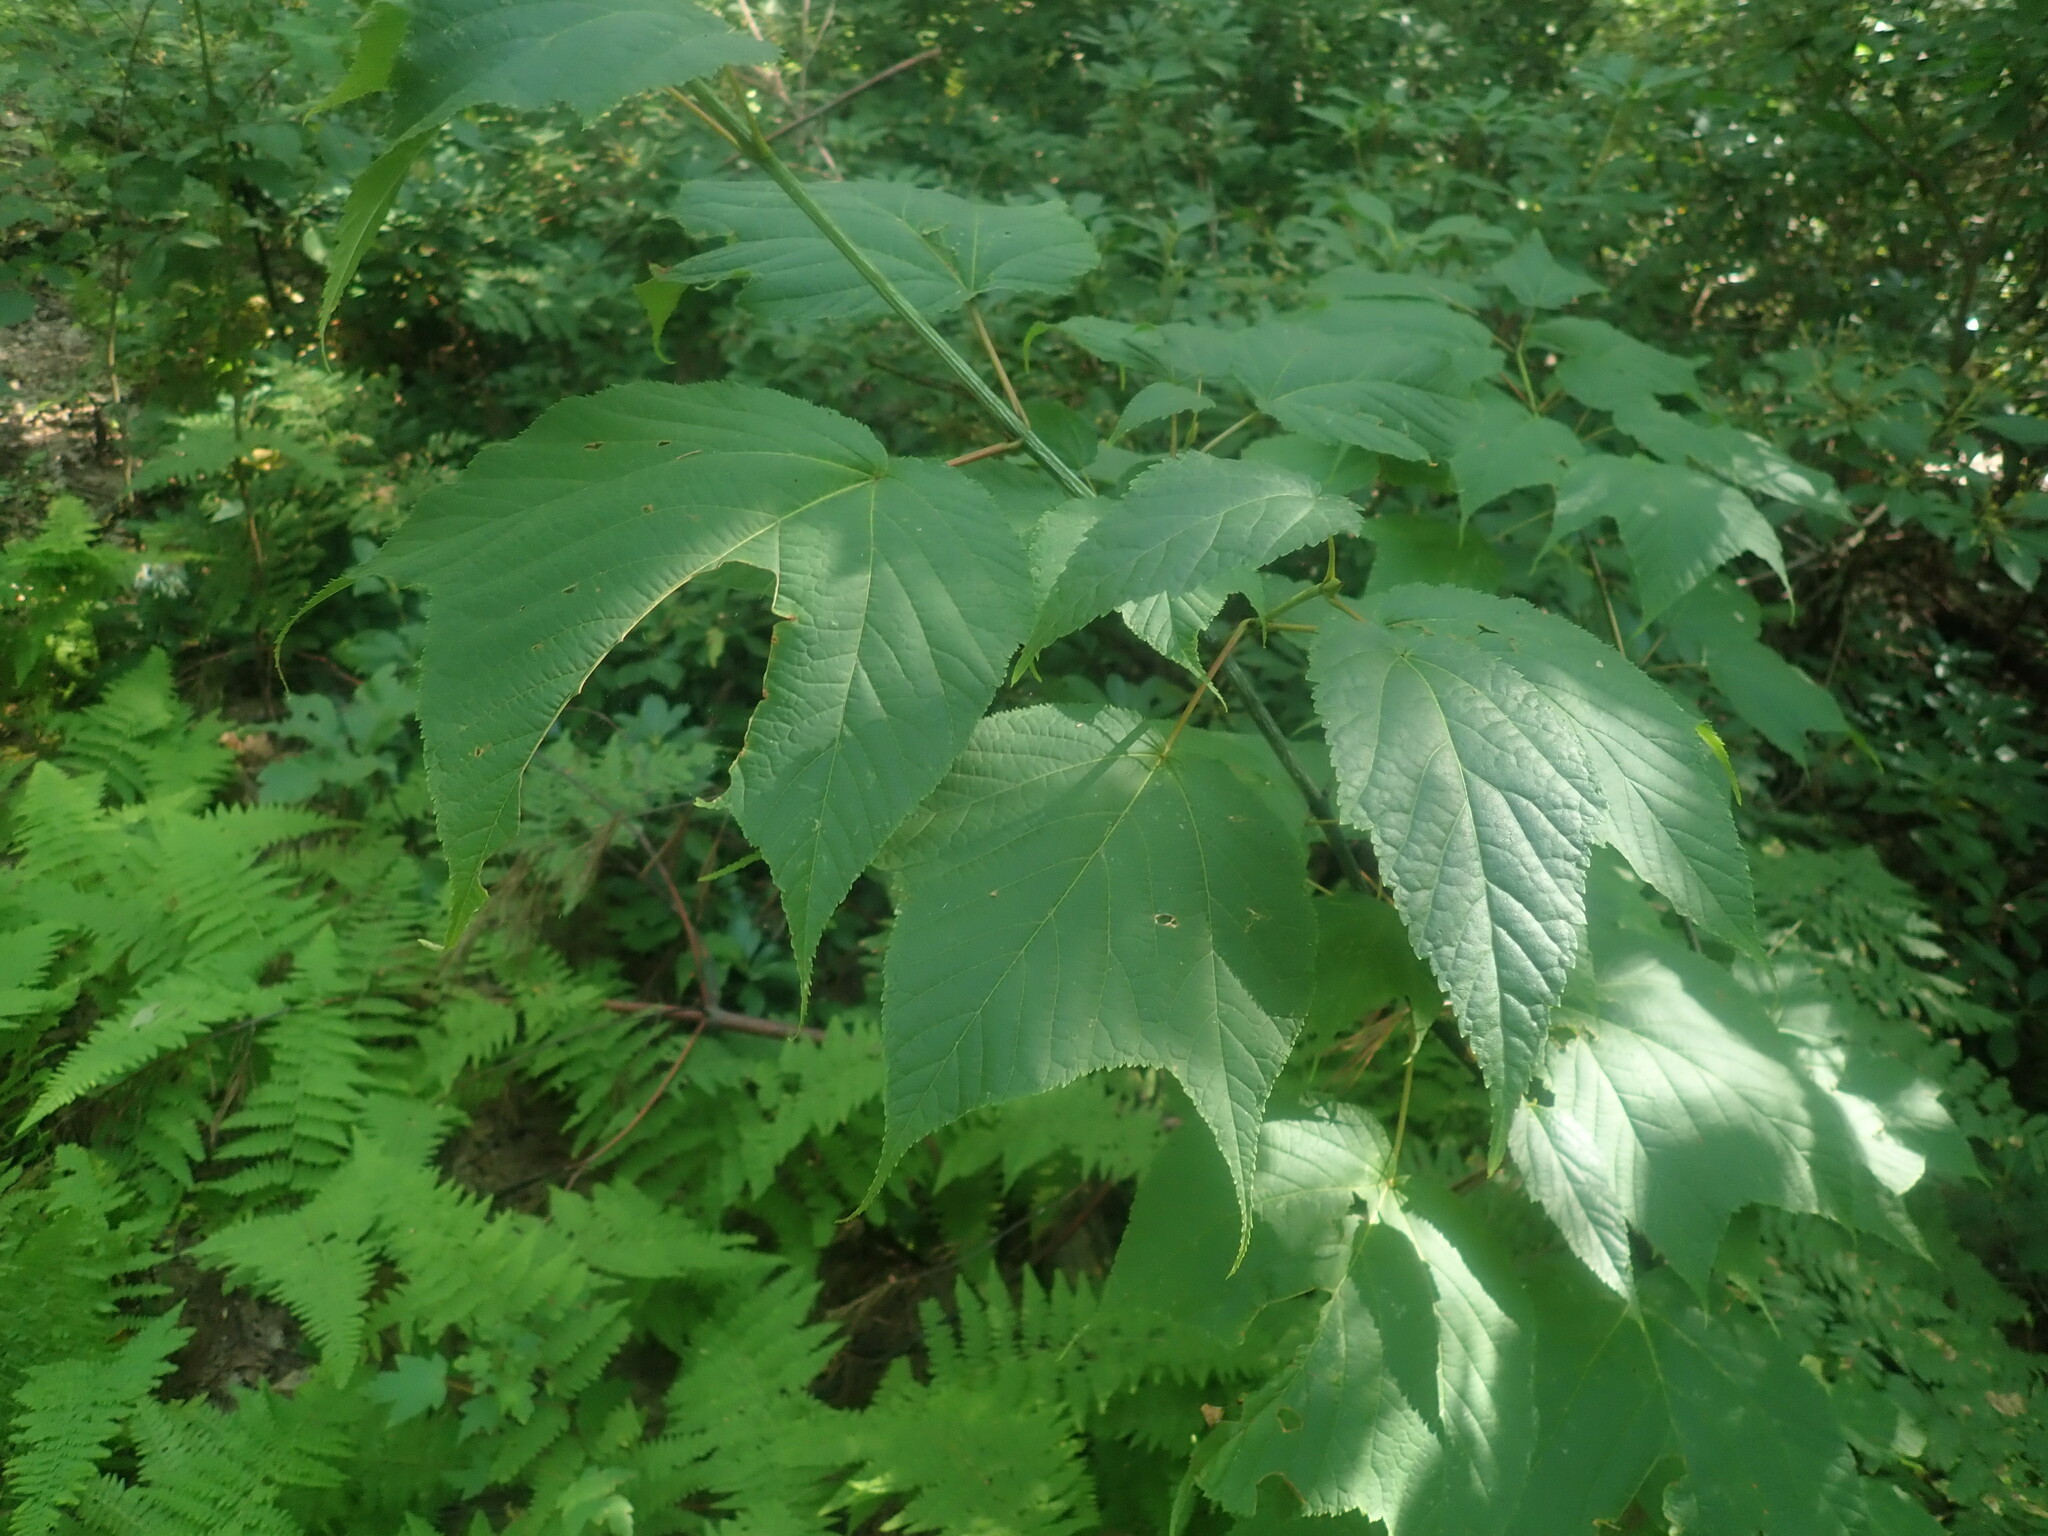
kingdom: Plantae
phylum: Tracheophyta
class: Magnoliopsida
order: Sapindales
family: Sapindaceae
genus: Acer
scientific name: Acer pensylvanicum
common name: Moosewood
